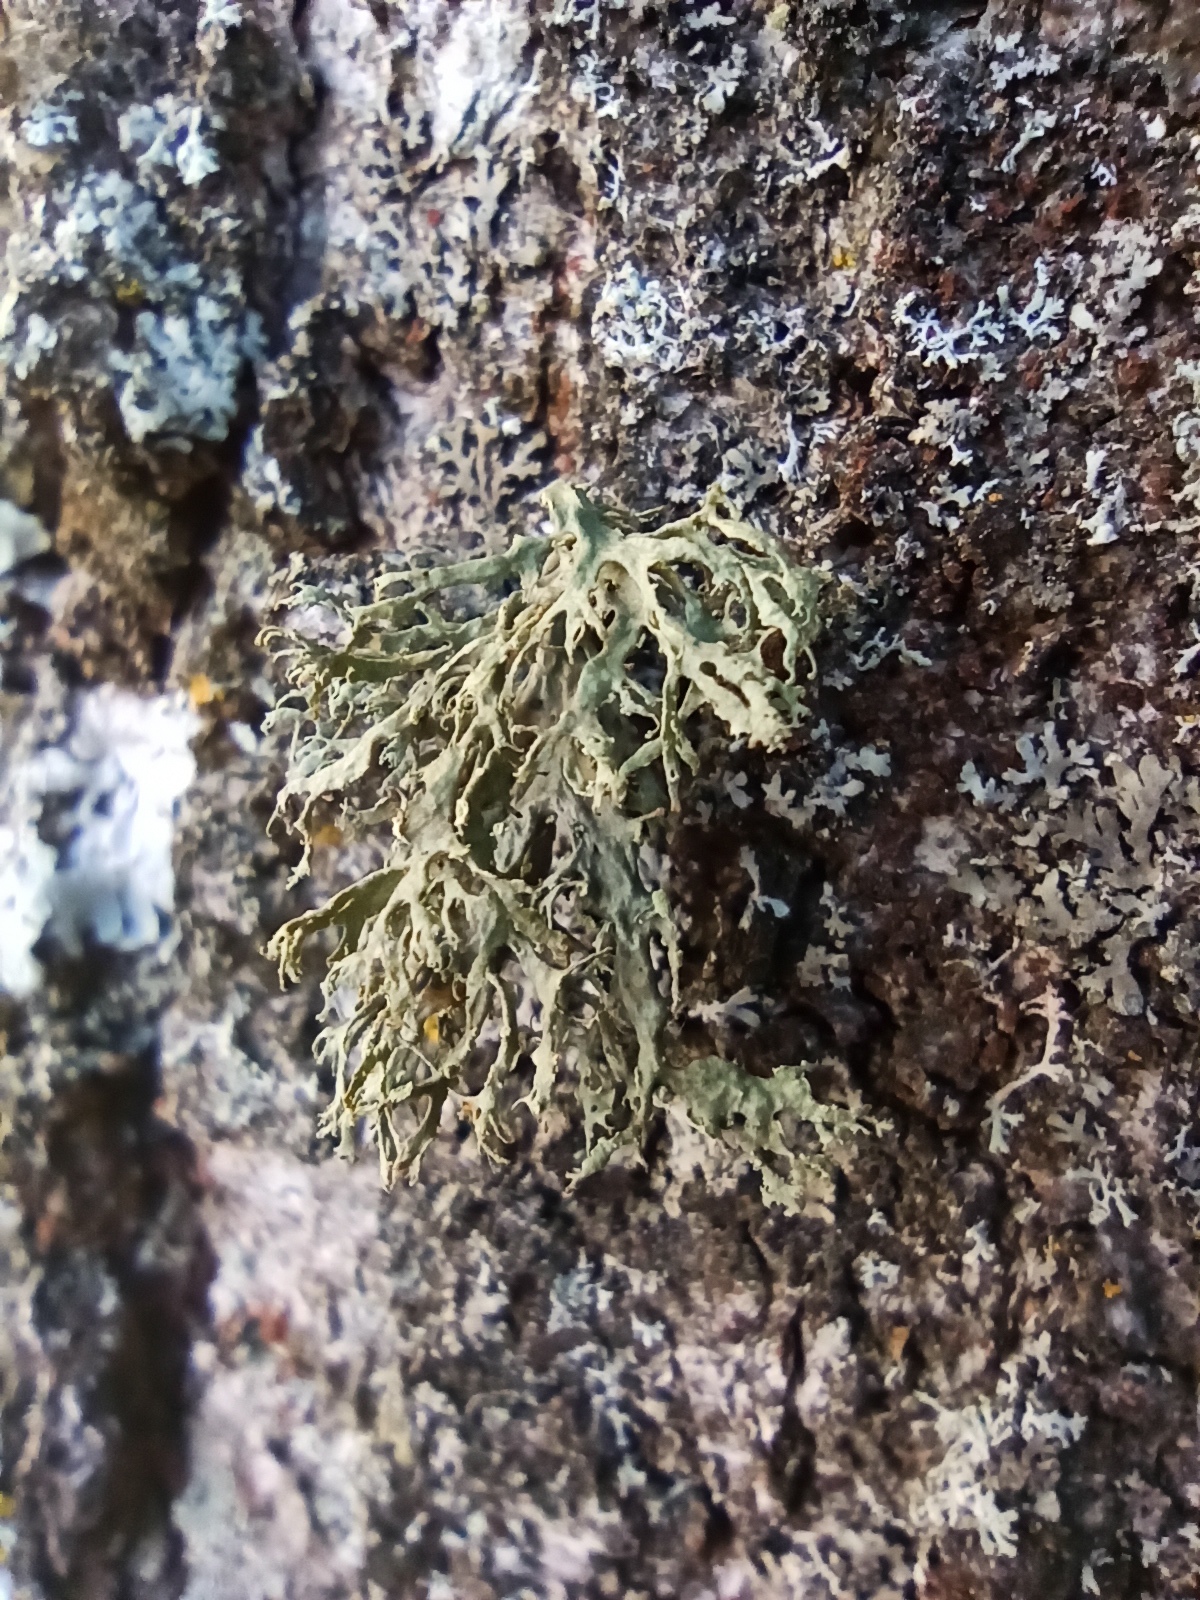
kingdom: Fungi
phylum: Ascomycota
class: Lecanoromycetes
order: Lecanorales
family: Ramalinaceae
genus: Ramalina
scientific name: Ramalina farinacea
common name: Farinose cartilage lichen
